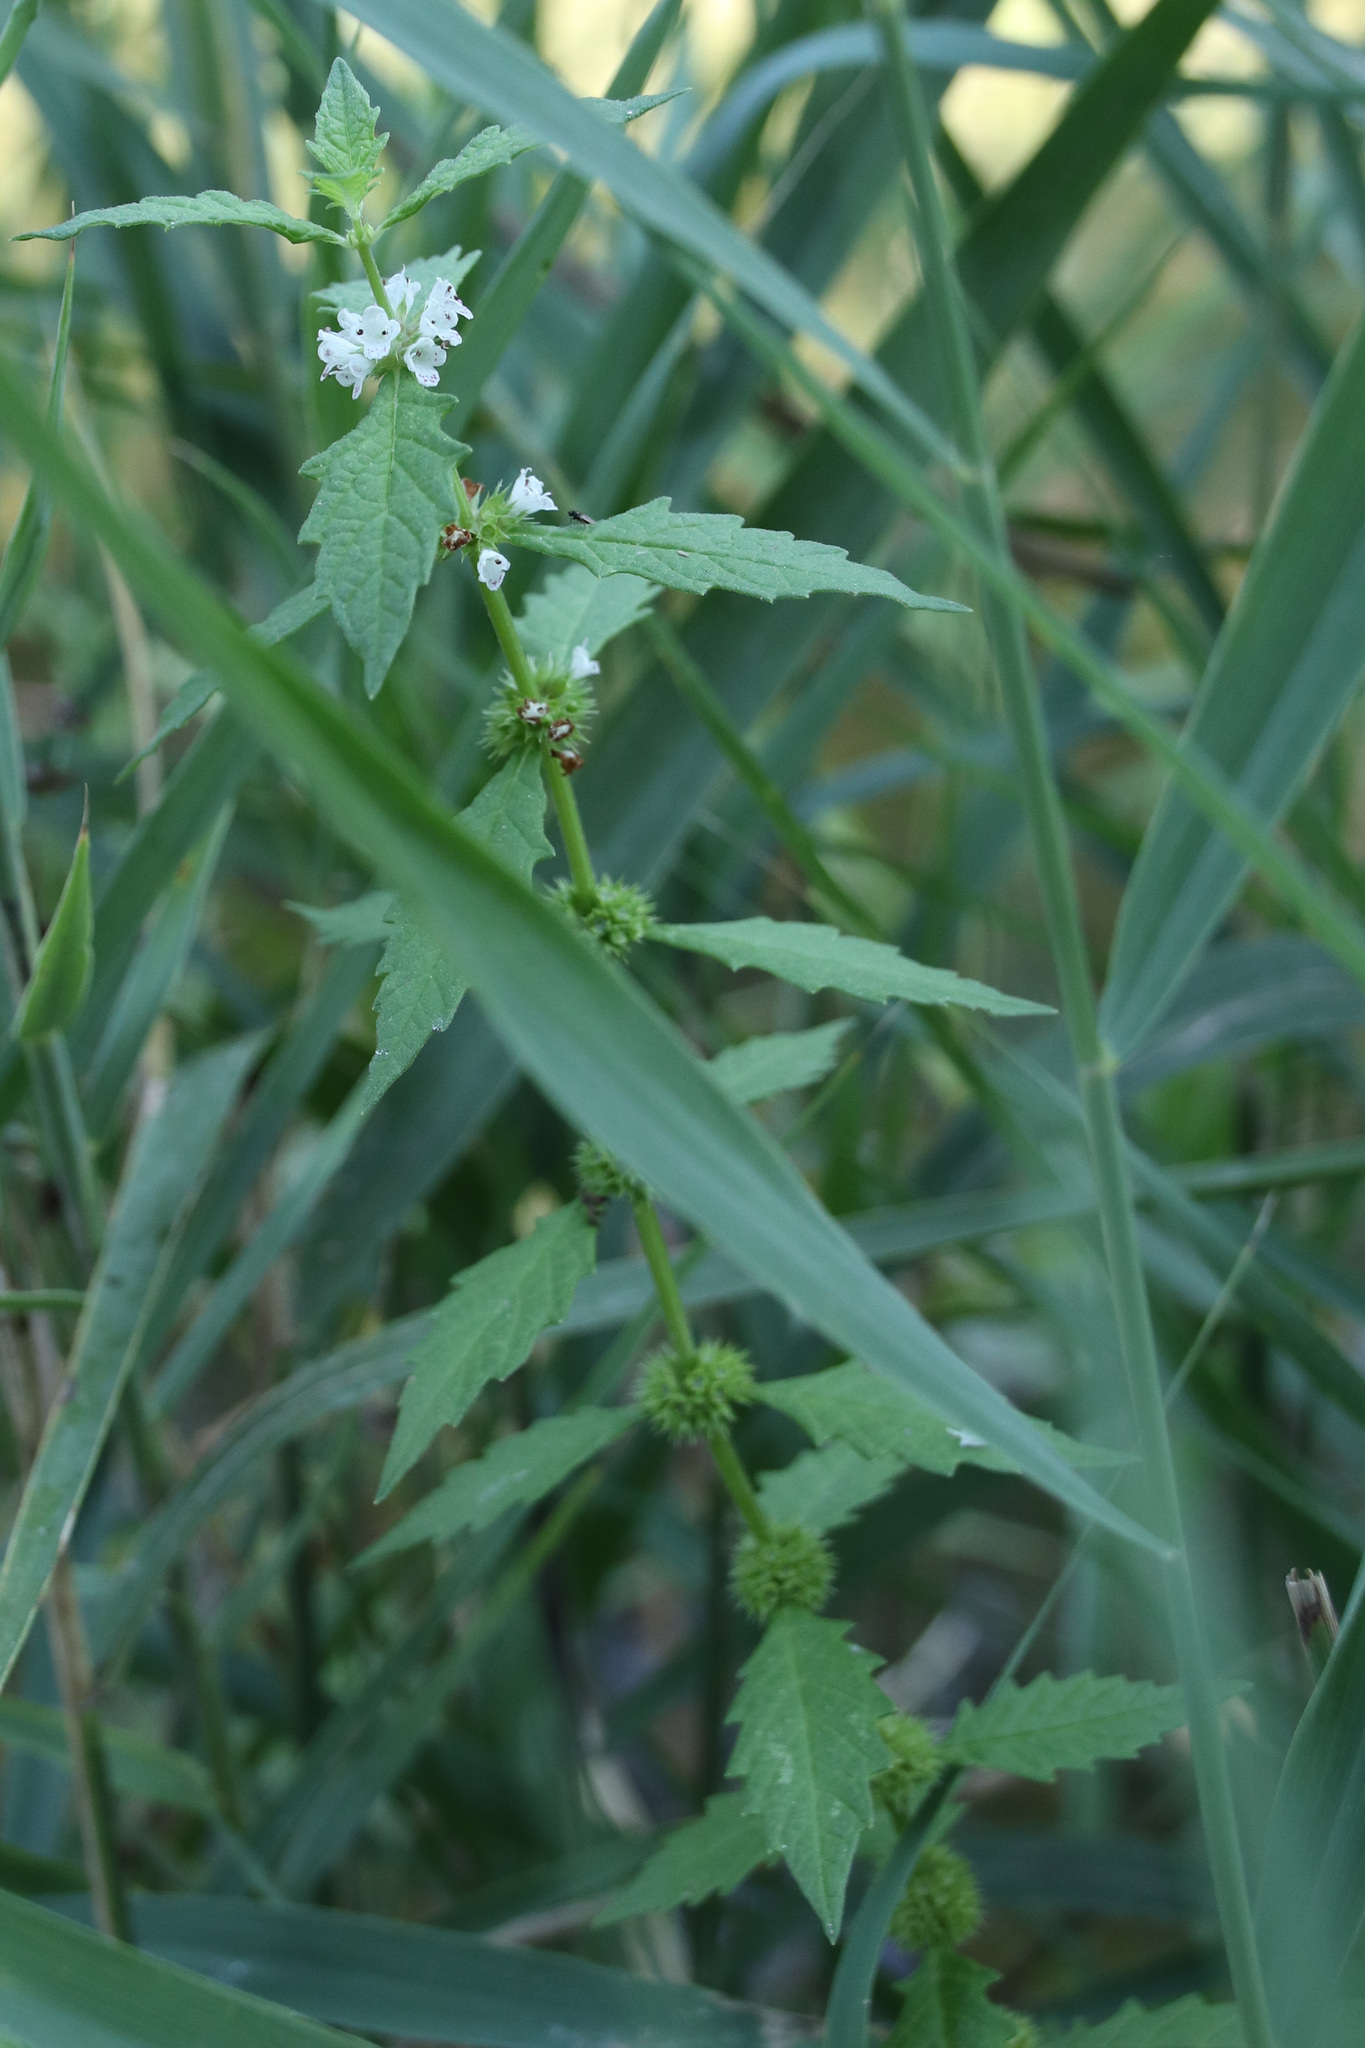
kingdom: Plantae
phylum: Tracheophyta
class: Magnoliopsida
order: Lamiales
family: Lamiaceae
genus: Lycopus
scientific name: Lycopus europaeus
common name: European bugleweed
